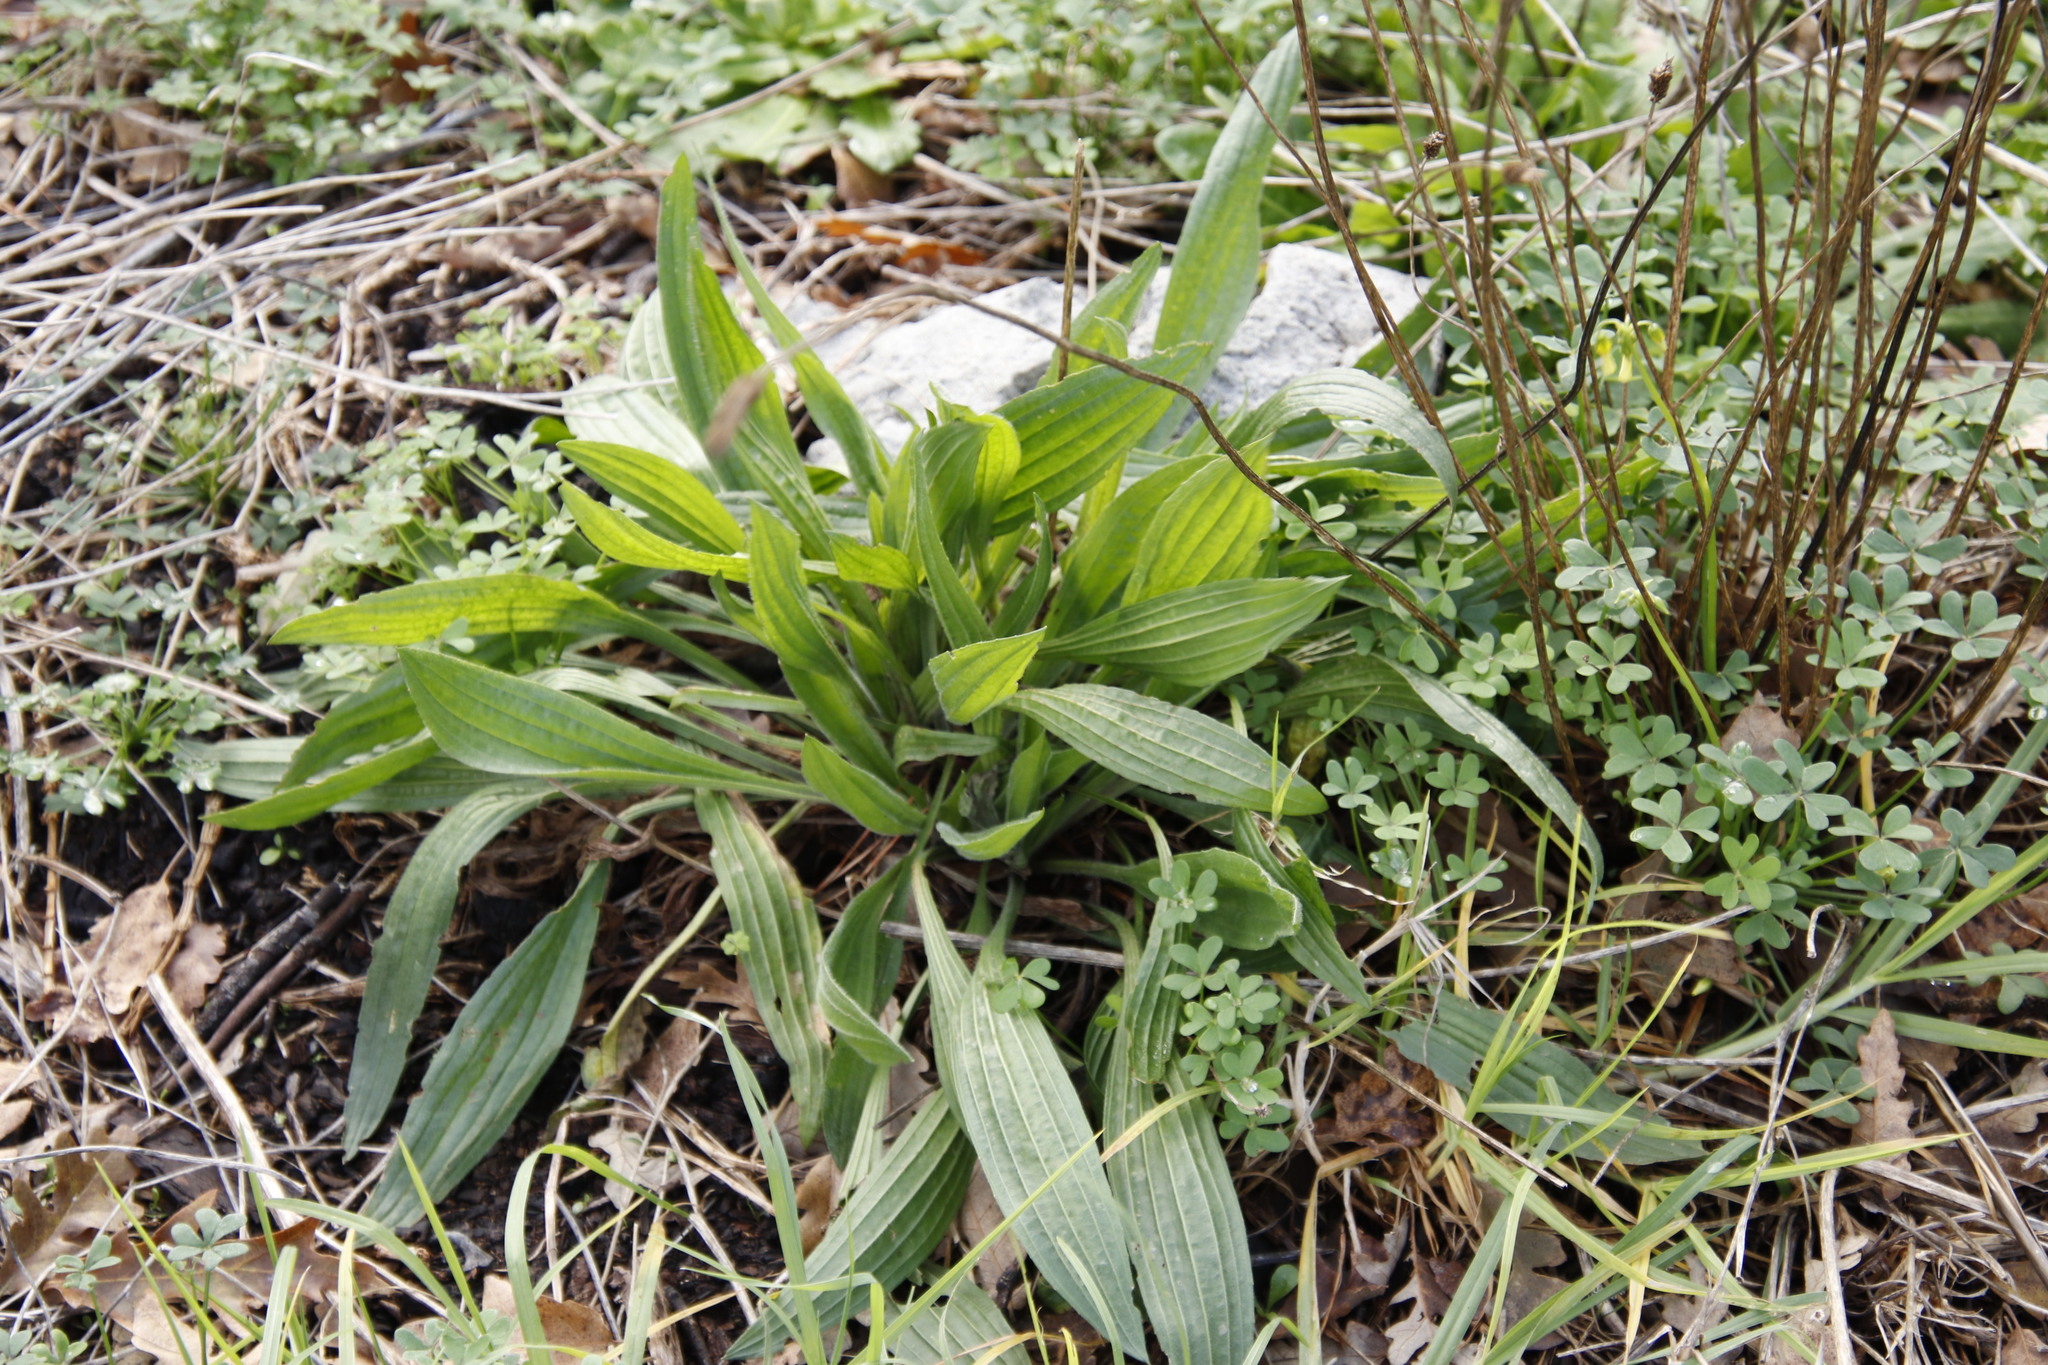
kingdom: Plantae
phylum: Tracheophyta
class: Magnoliopsida
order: Lamiales
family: Plantaginaceae
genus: Plantago
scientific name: Plantago lanceolata
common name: Ribwort plantain
